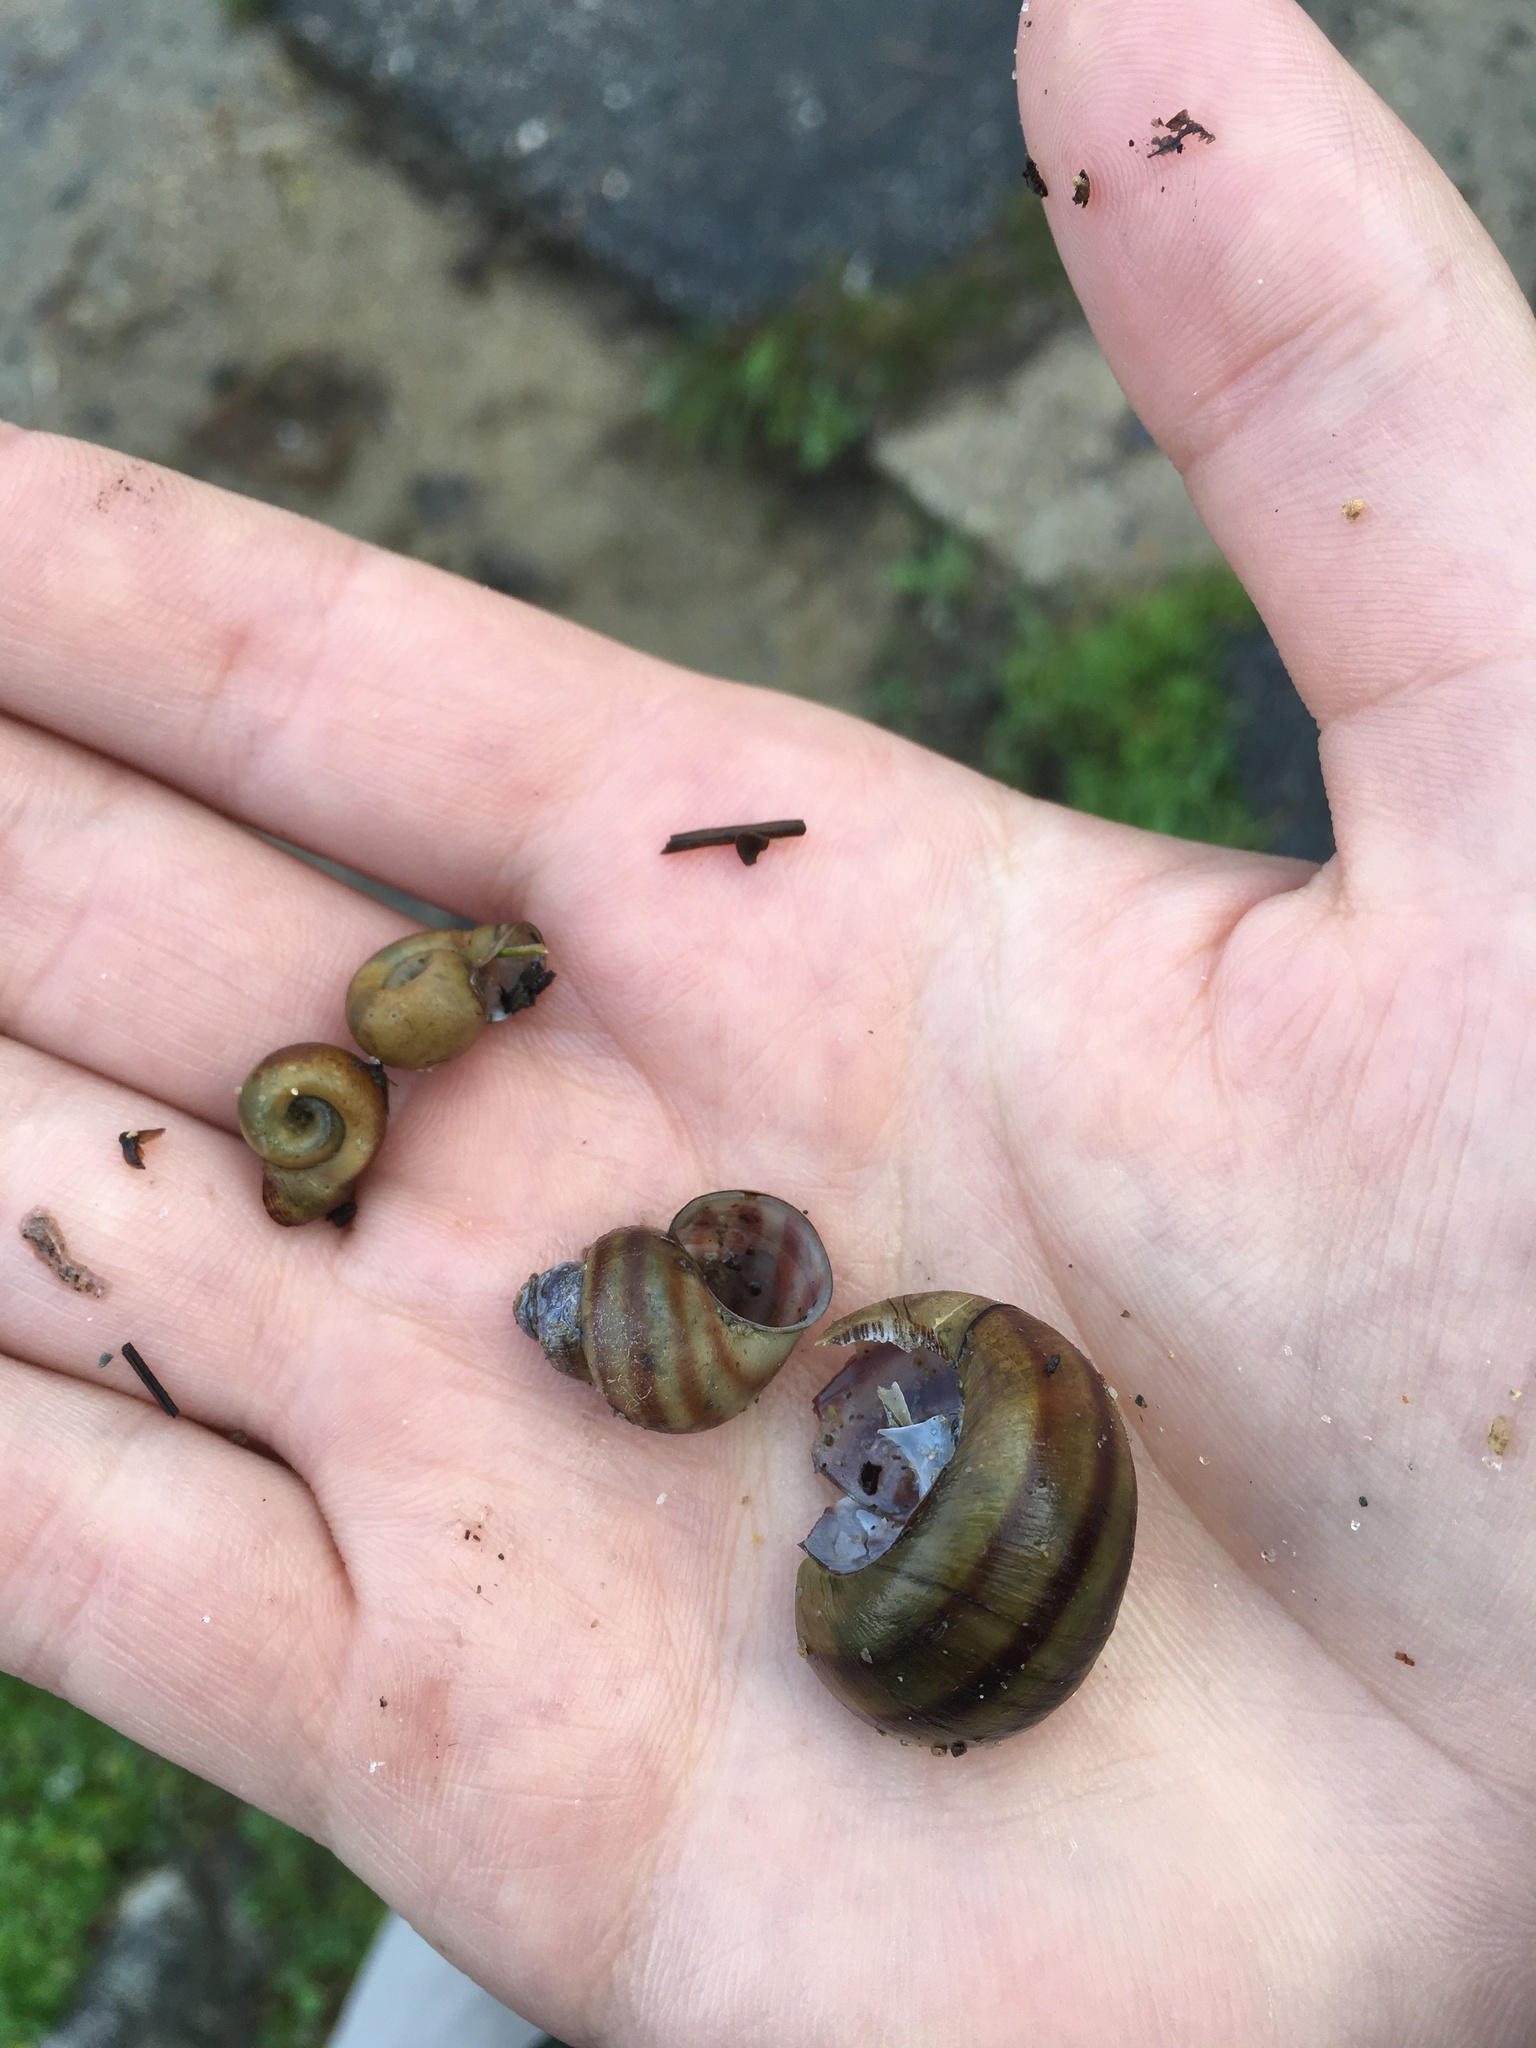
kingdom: Animalia
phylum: Mollusca
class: Gastropoda
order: Architaenioglossa
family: Viviparidae
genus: Callinina
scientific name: Callinina georgiana
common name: Banded mystery snail
